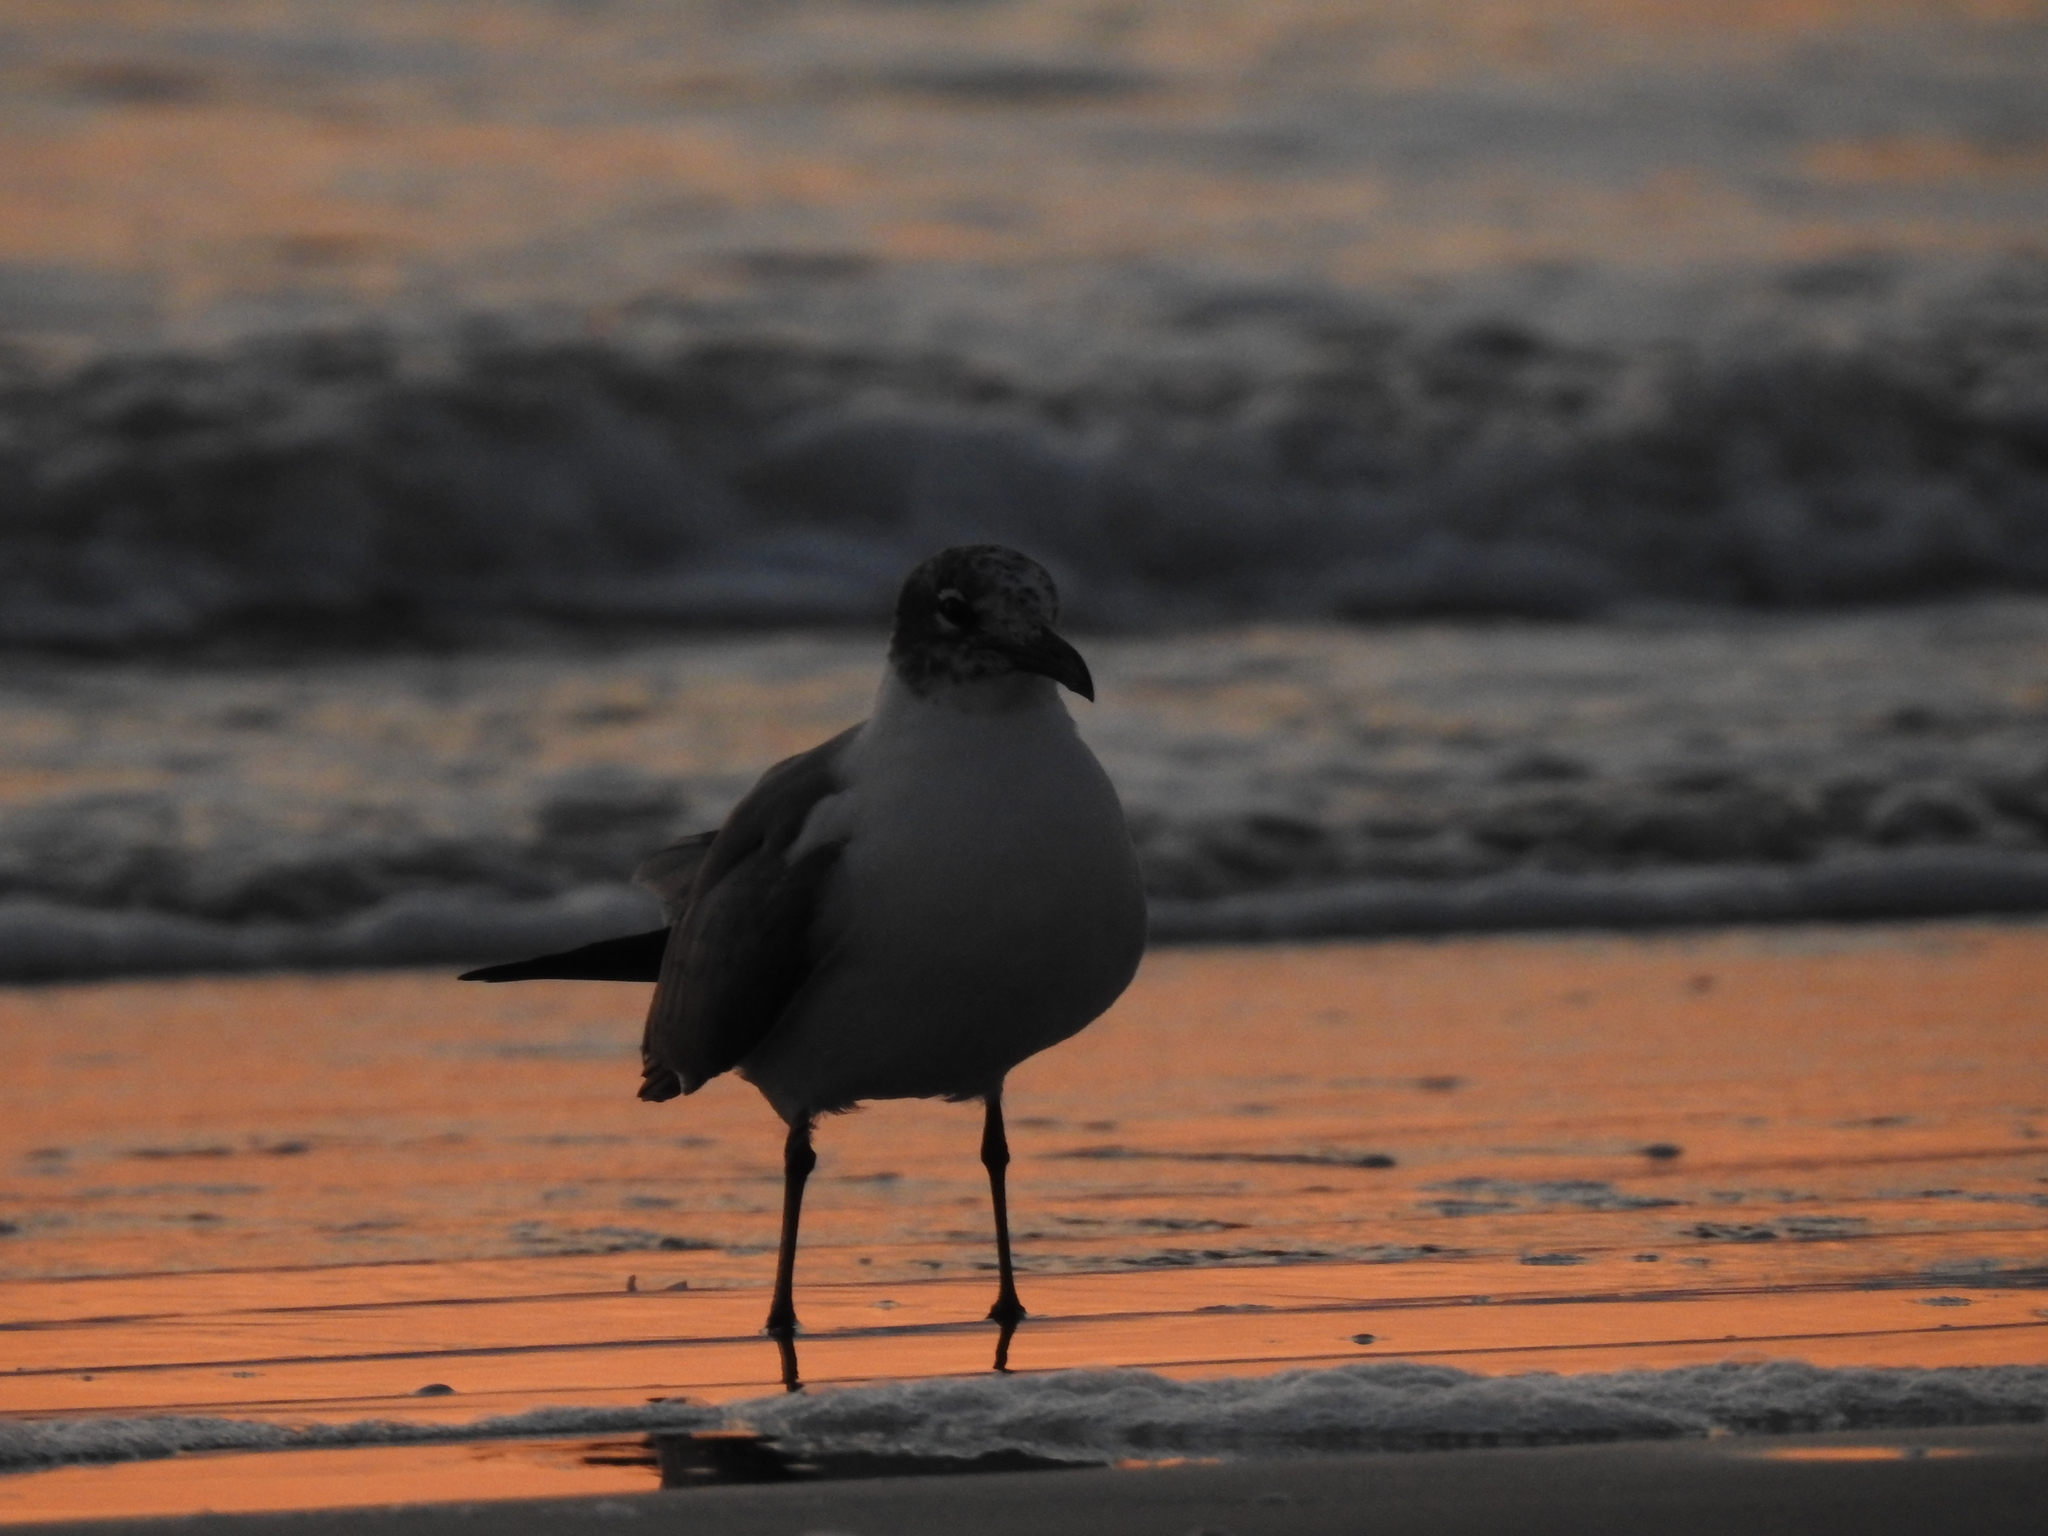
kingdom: Animalia
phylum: Chordata
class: Aves
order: Charadriiformes
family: Laridae
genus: Leucophaeus
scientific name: Leucophaeus atricilla
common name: Laughing gull
